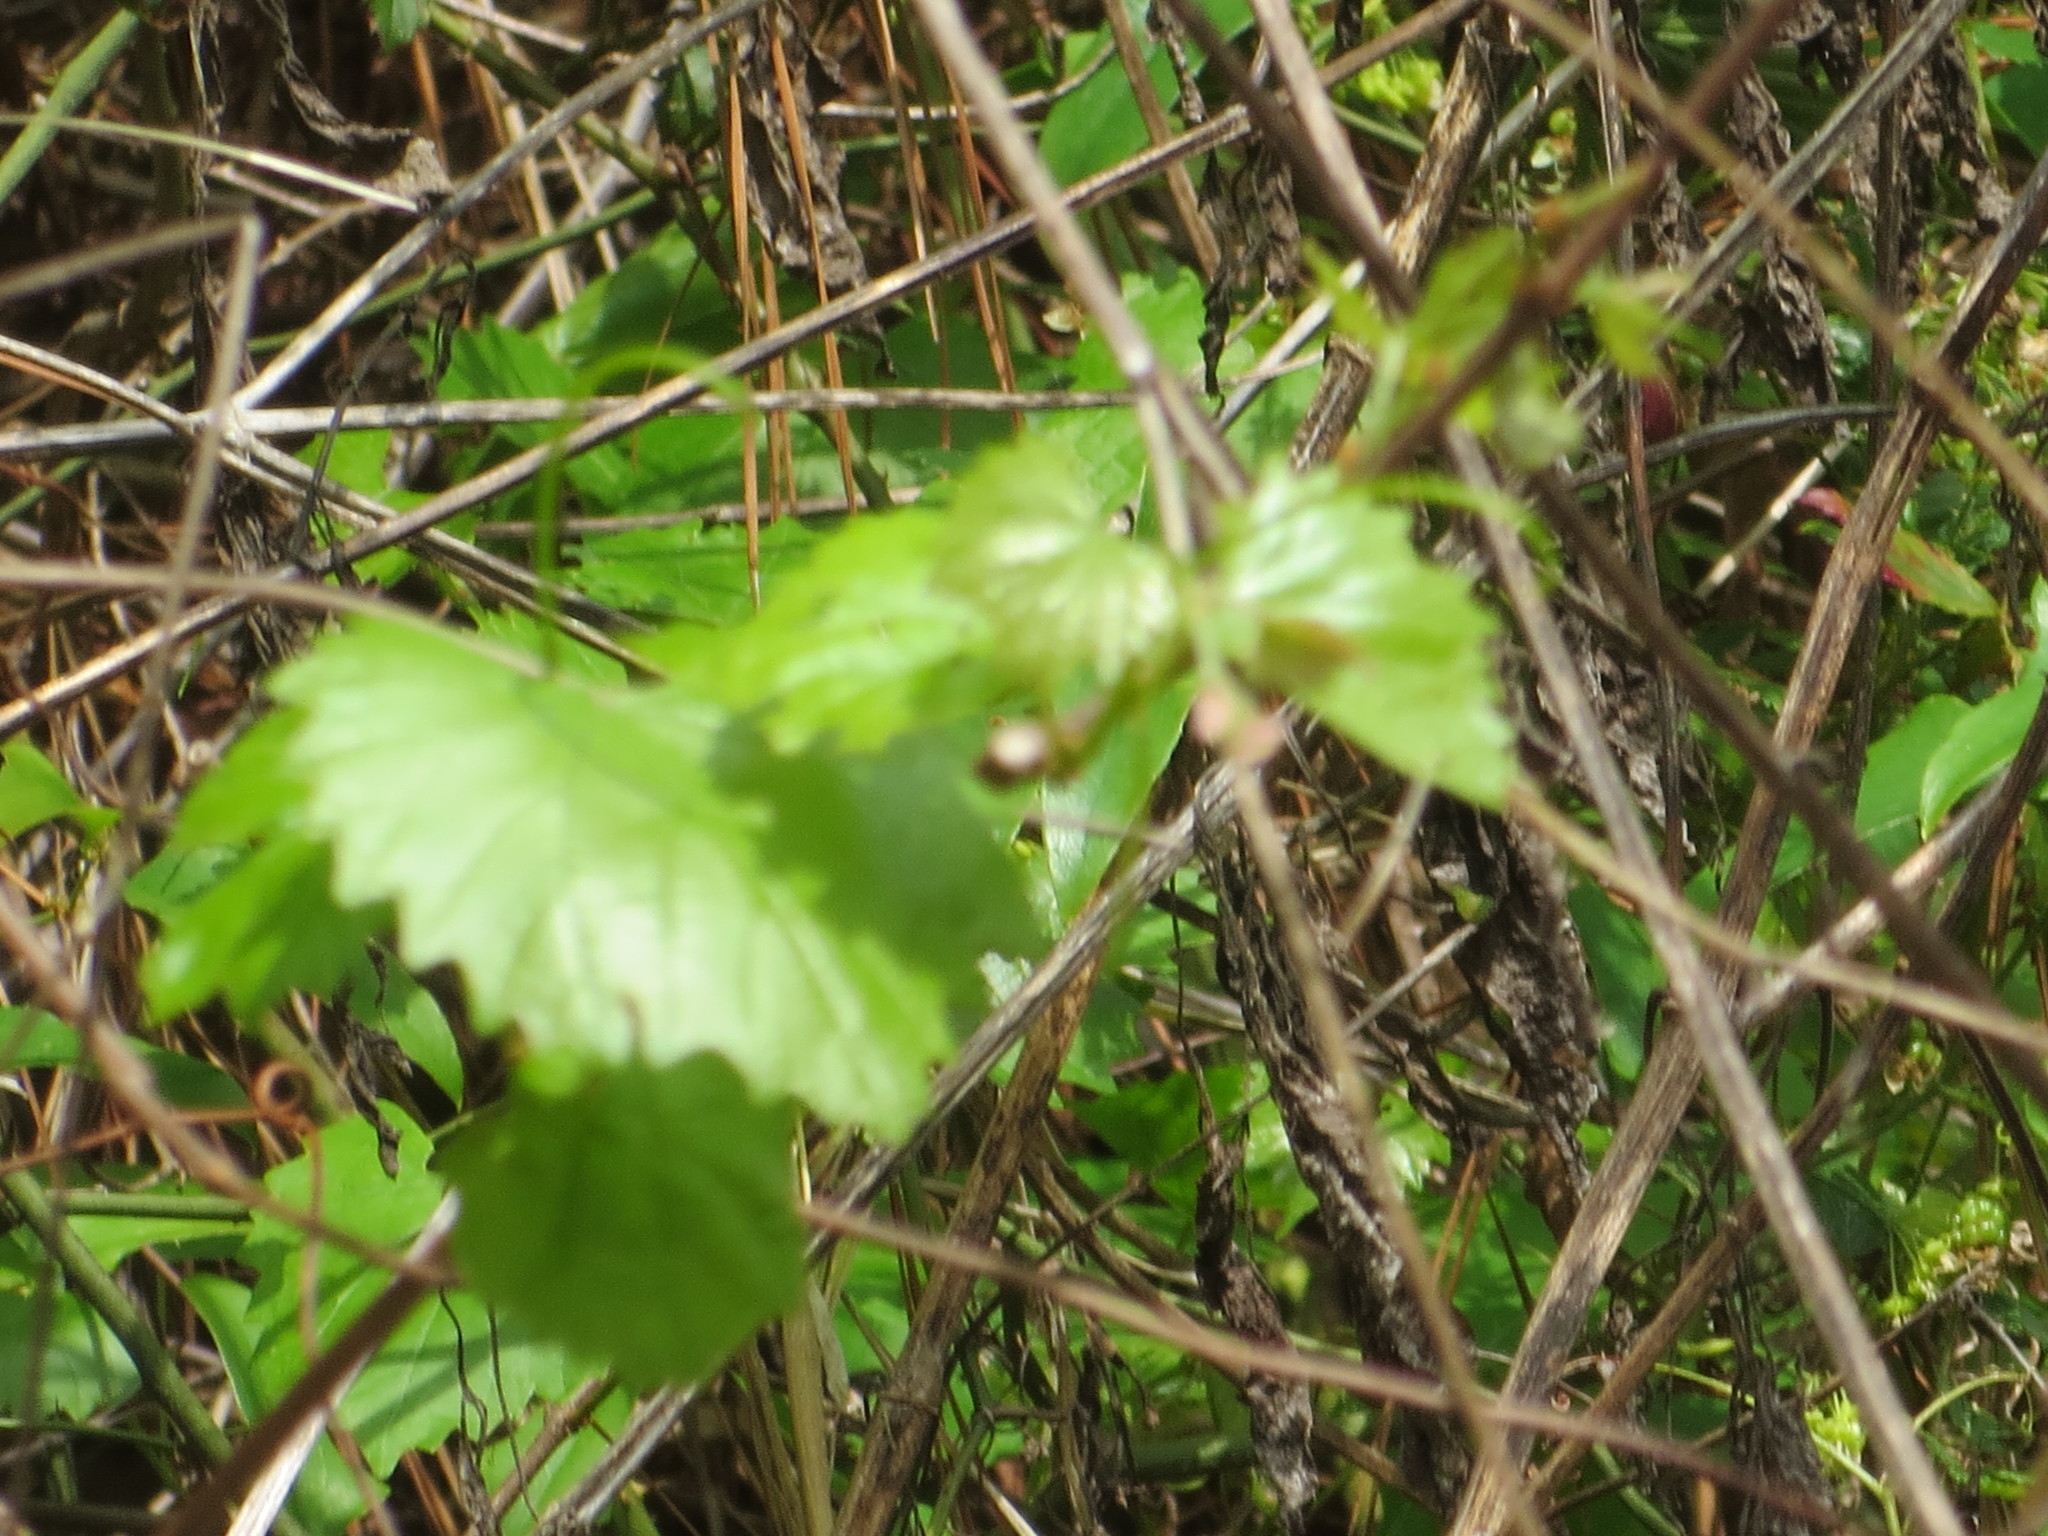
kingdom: Plantae
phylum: Tracheophyta
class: Magnoliopsida
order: Vitales
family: Vitaceae
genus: Vitis
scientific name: Vitis rotundifolia
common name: Muscadine grape
